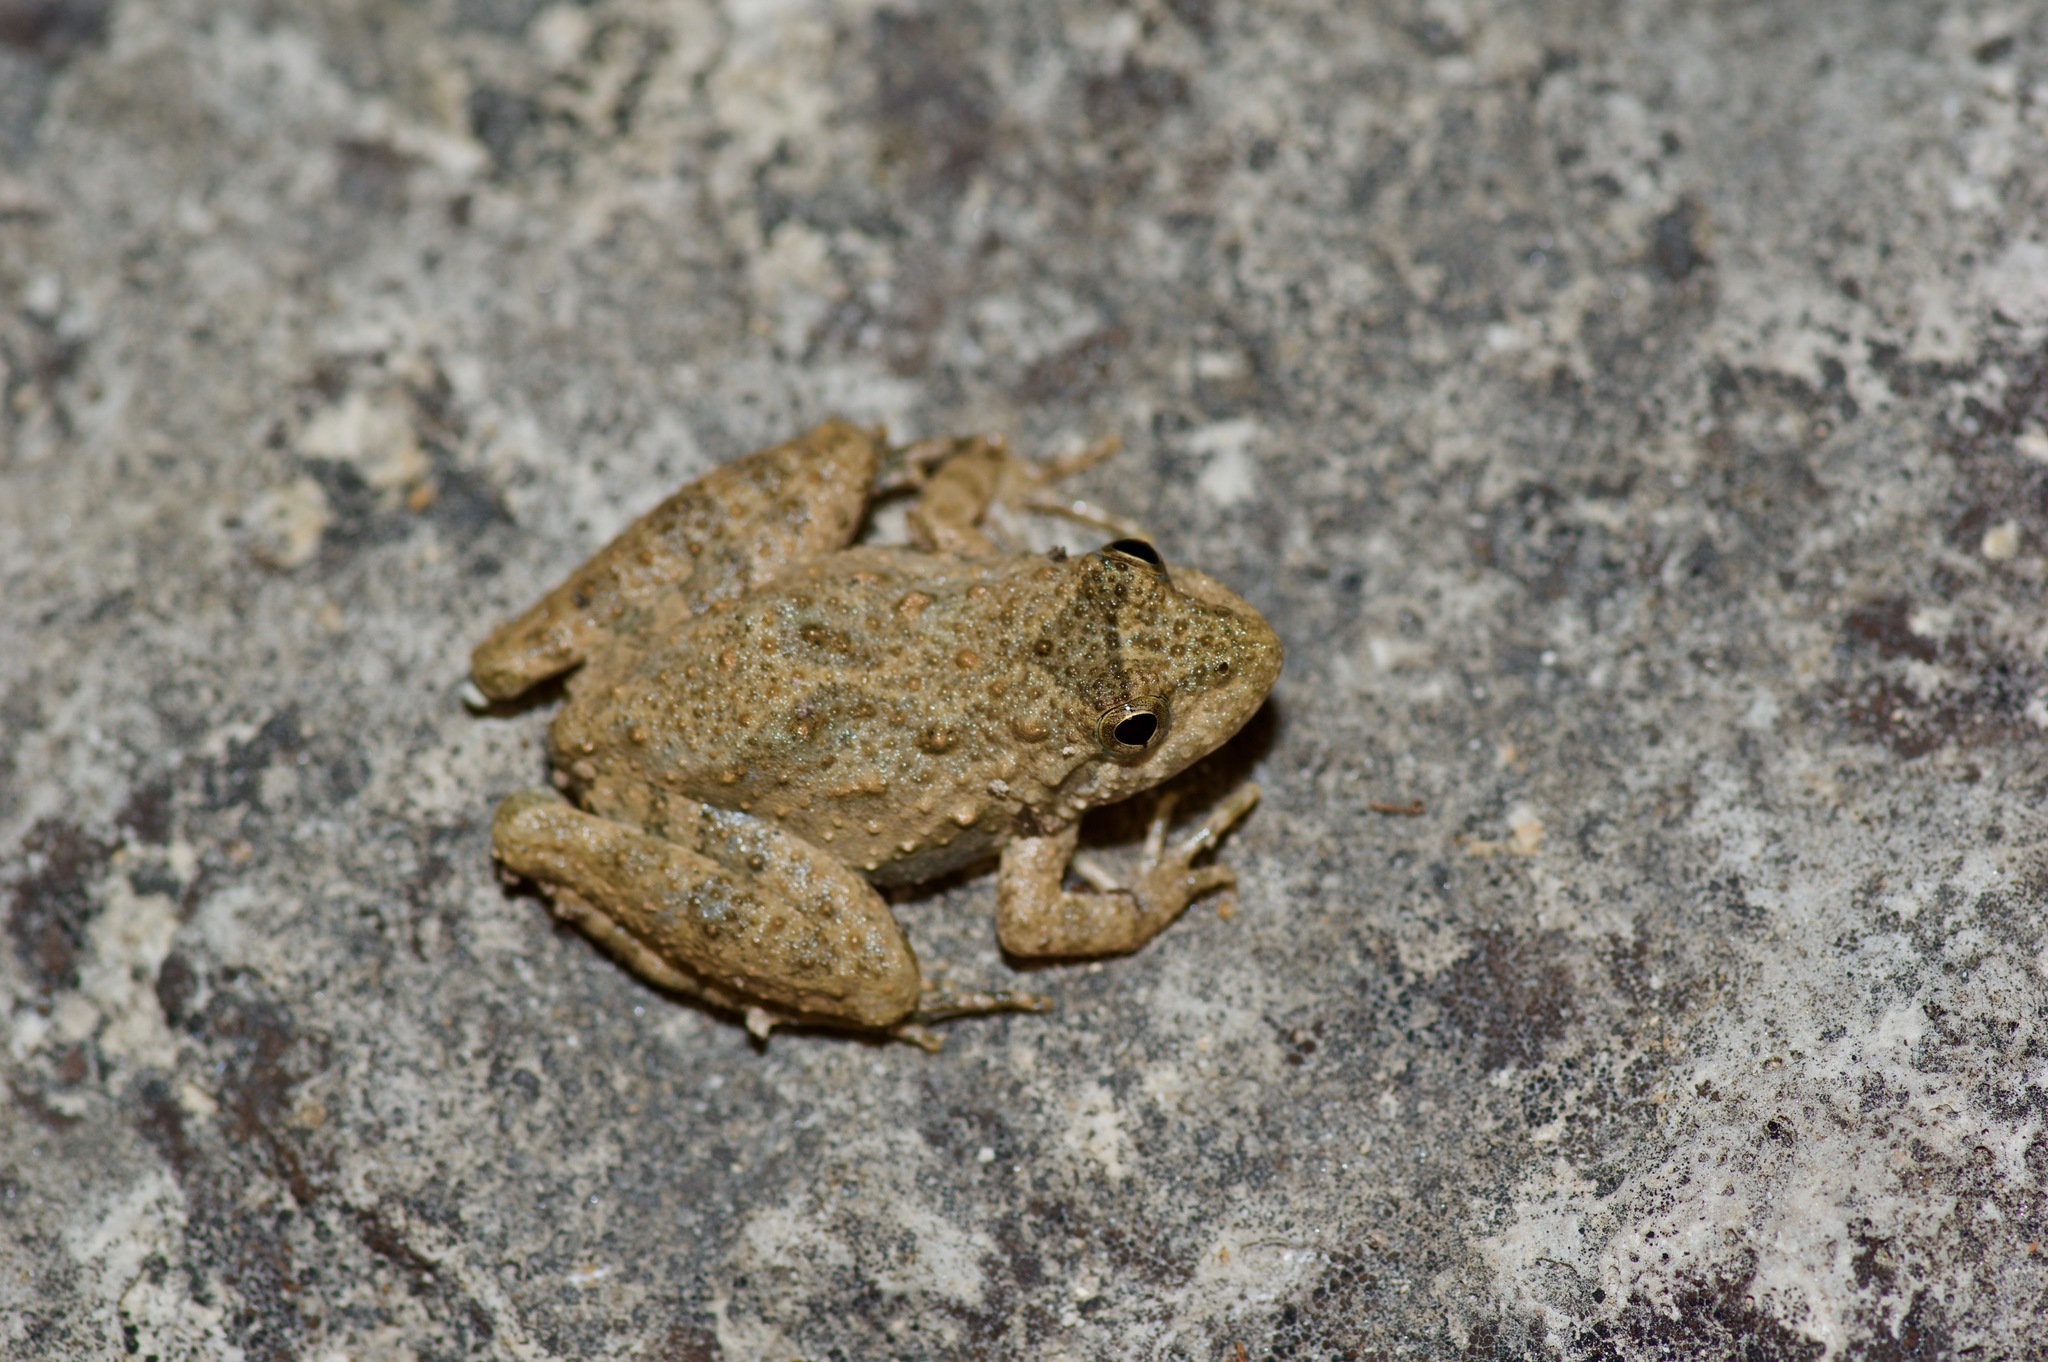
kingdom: Animalia
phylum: Chordata
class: Amphibia
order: Anura
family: Hylidae
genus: Acris
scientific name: Acris blanchardi
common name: Blanchard's cricket frog
